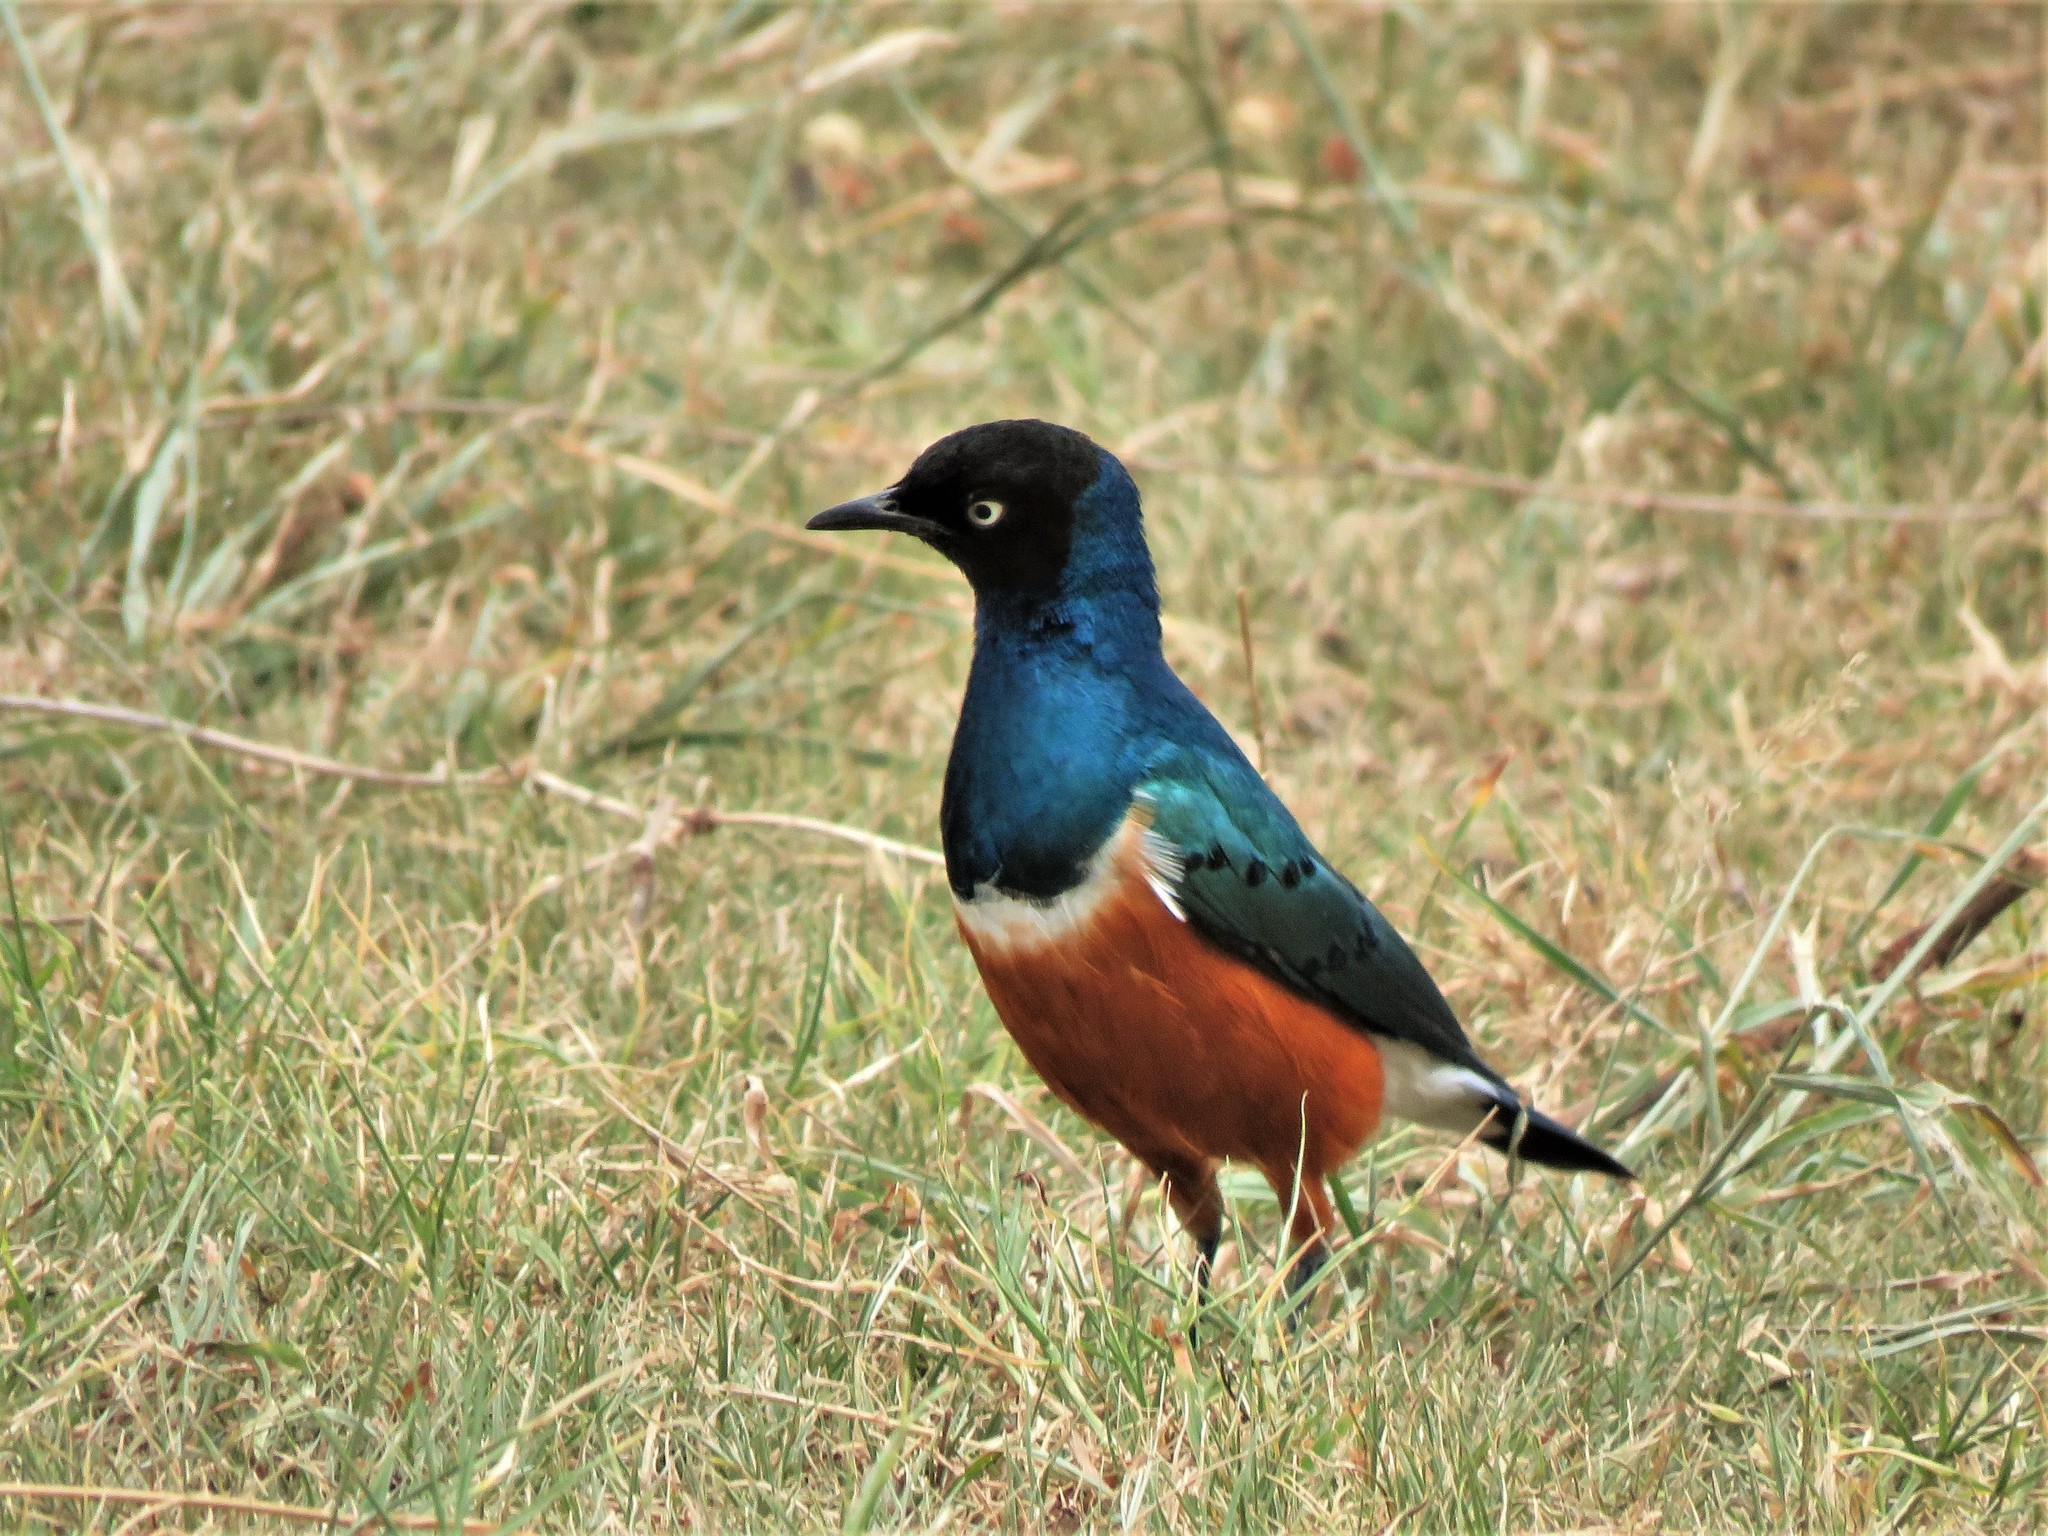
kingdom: Animalia
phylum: Chordata
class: Aves
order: Passeriformes
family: Sturnidae
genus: Lamprotornis
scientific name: Lamprotornis superbus
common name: Superb starling
